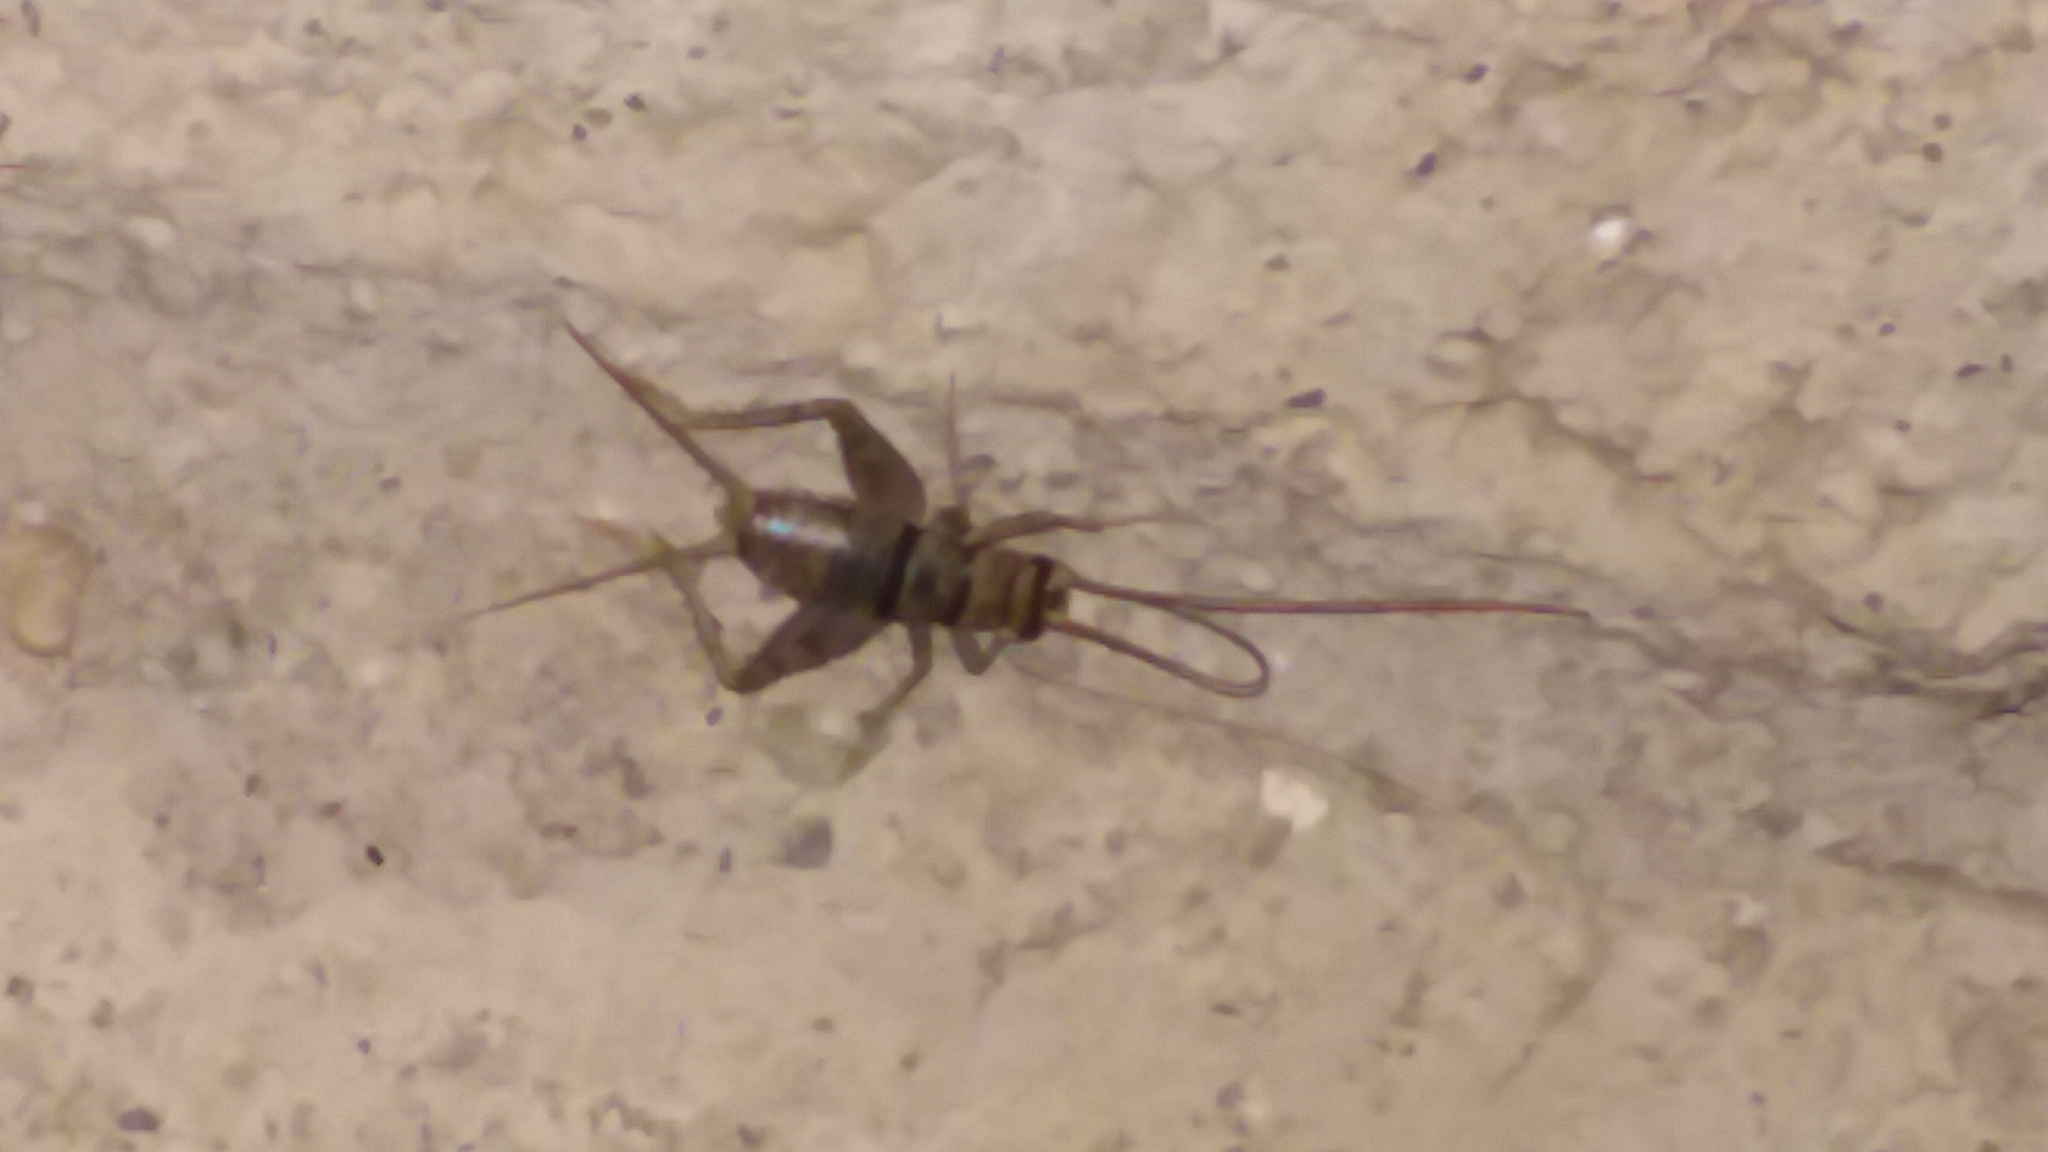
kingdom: Animalia
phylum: Arthropoda
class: Insecta
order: Orthoptera
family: Gryllidae
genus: Gryllodes
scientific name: Gryllodes sigillatus
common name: Tropical house cricket
